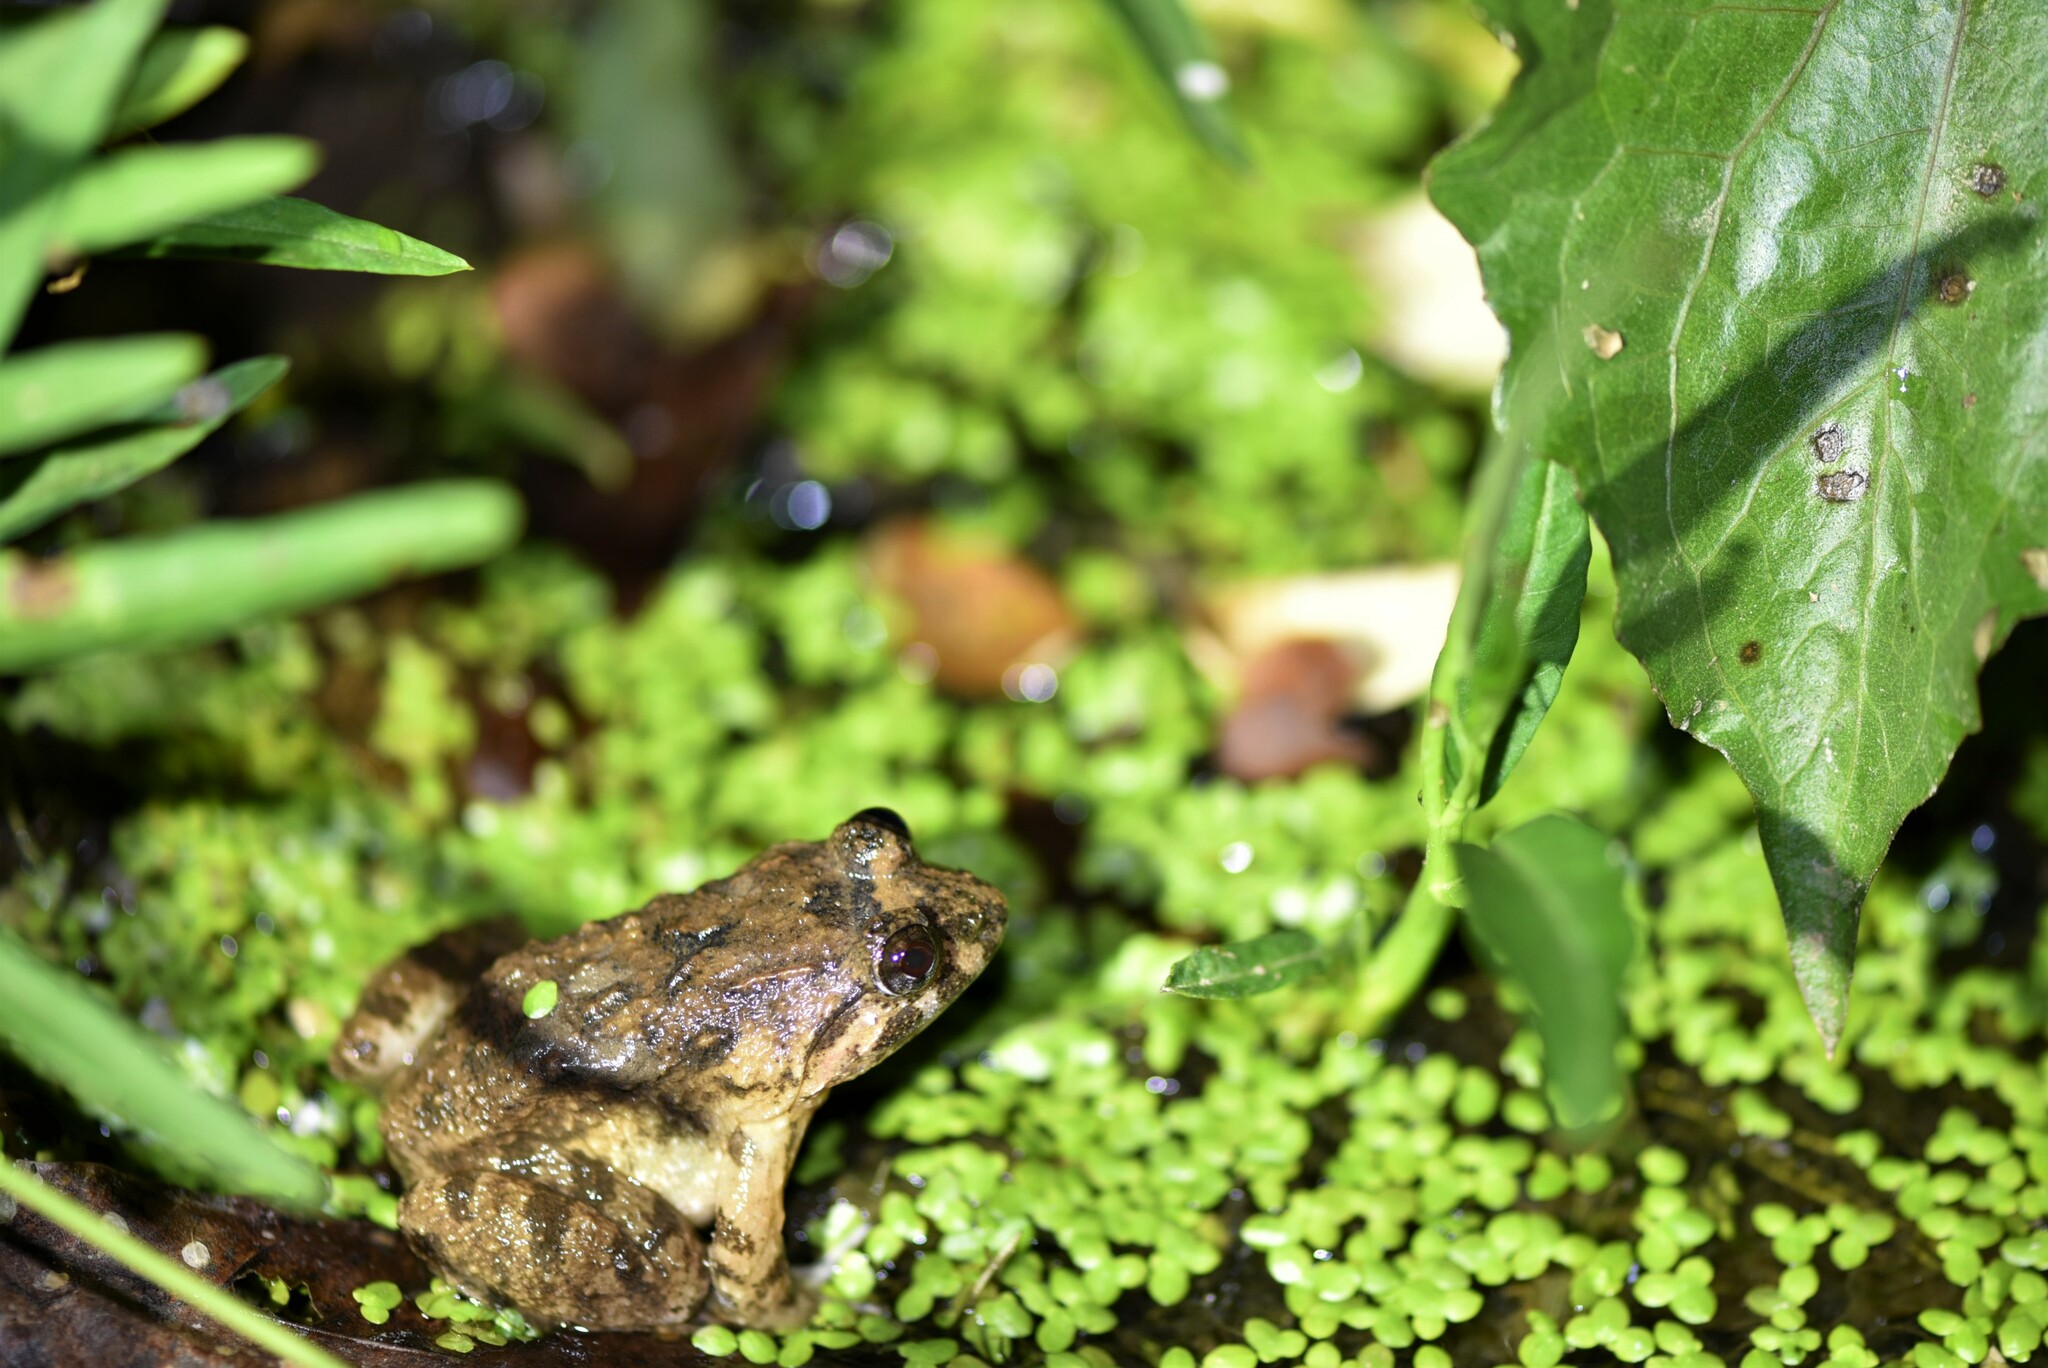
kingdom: Animalia
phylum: Chordata
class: Amphibia
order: Anura
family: Dicroglossidae
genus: Limnonectes
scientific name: Limnonectes fujianensis
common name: Fujian large-headed frog
